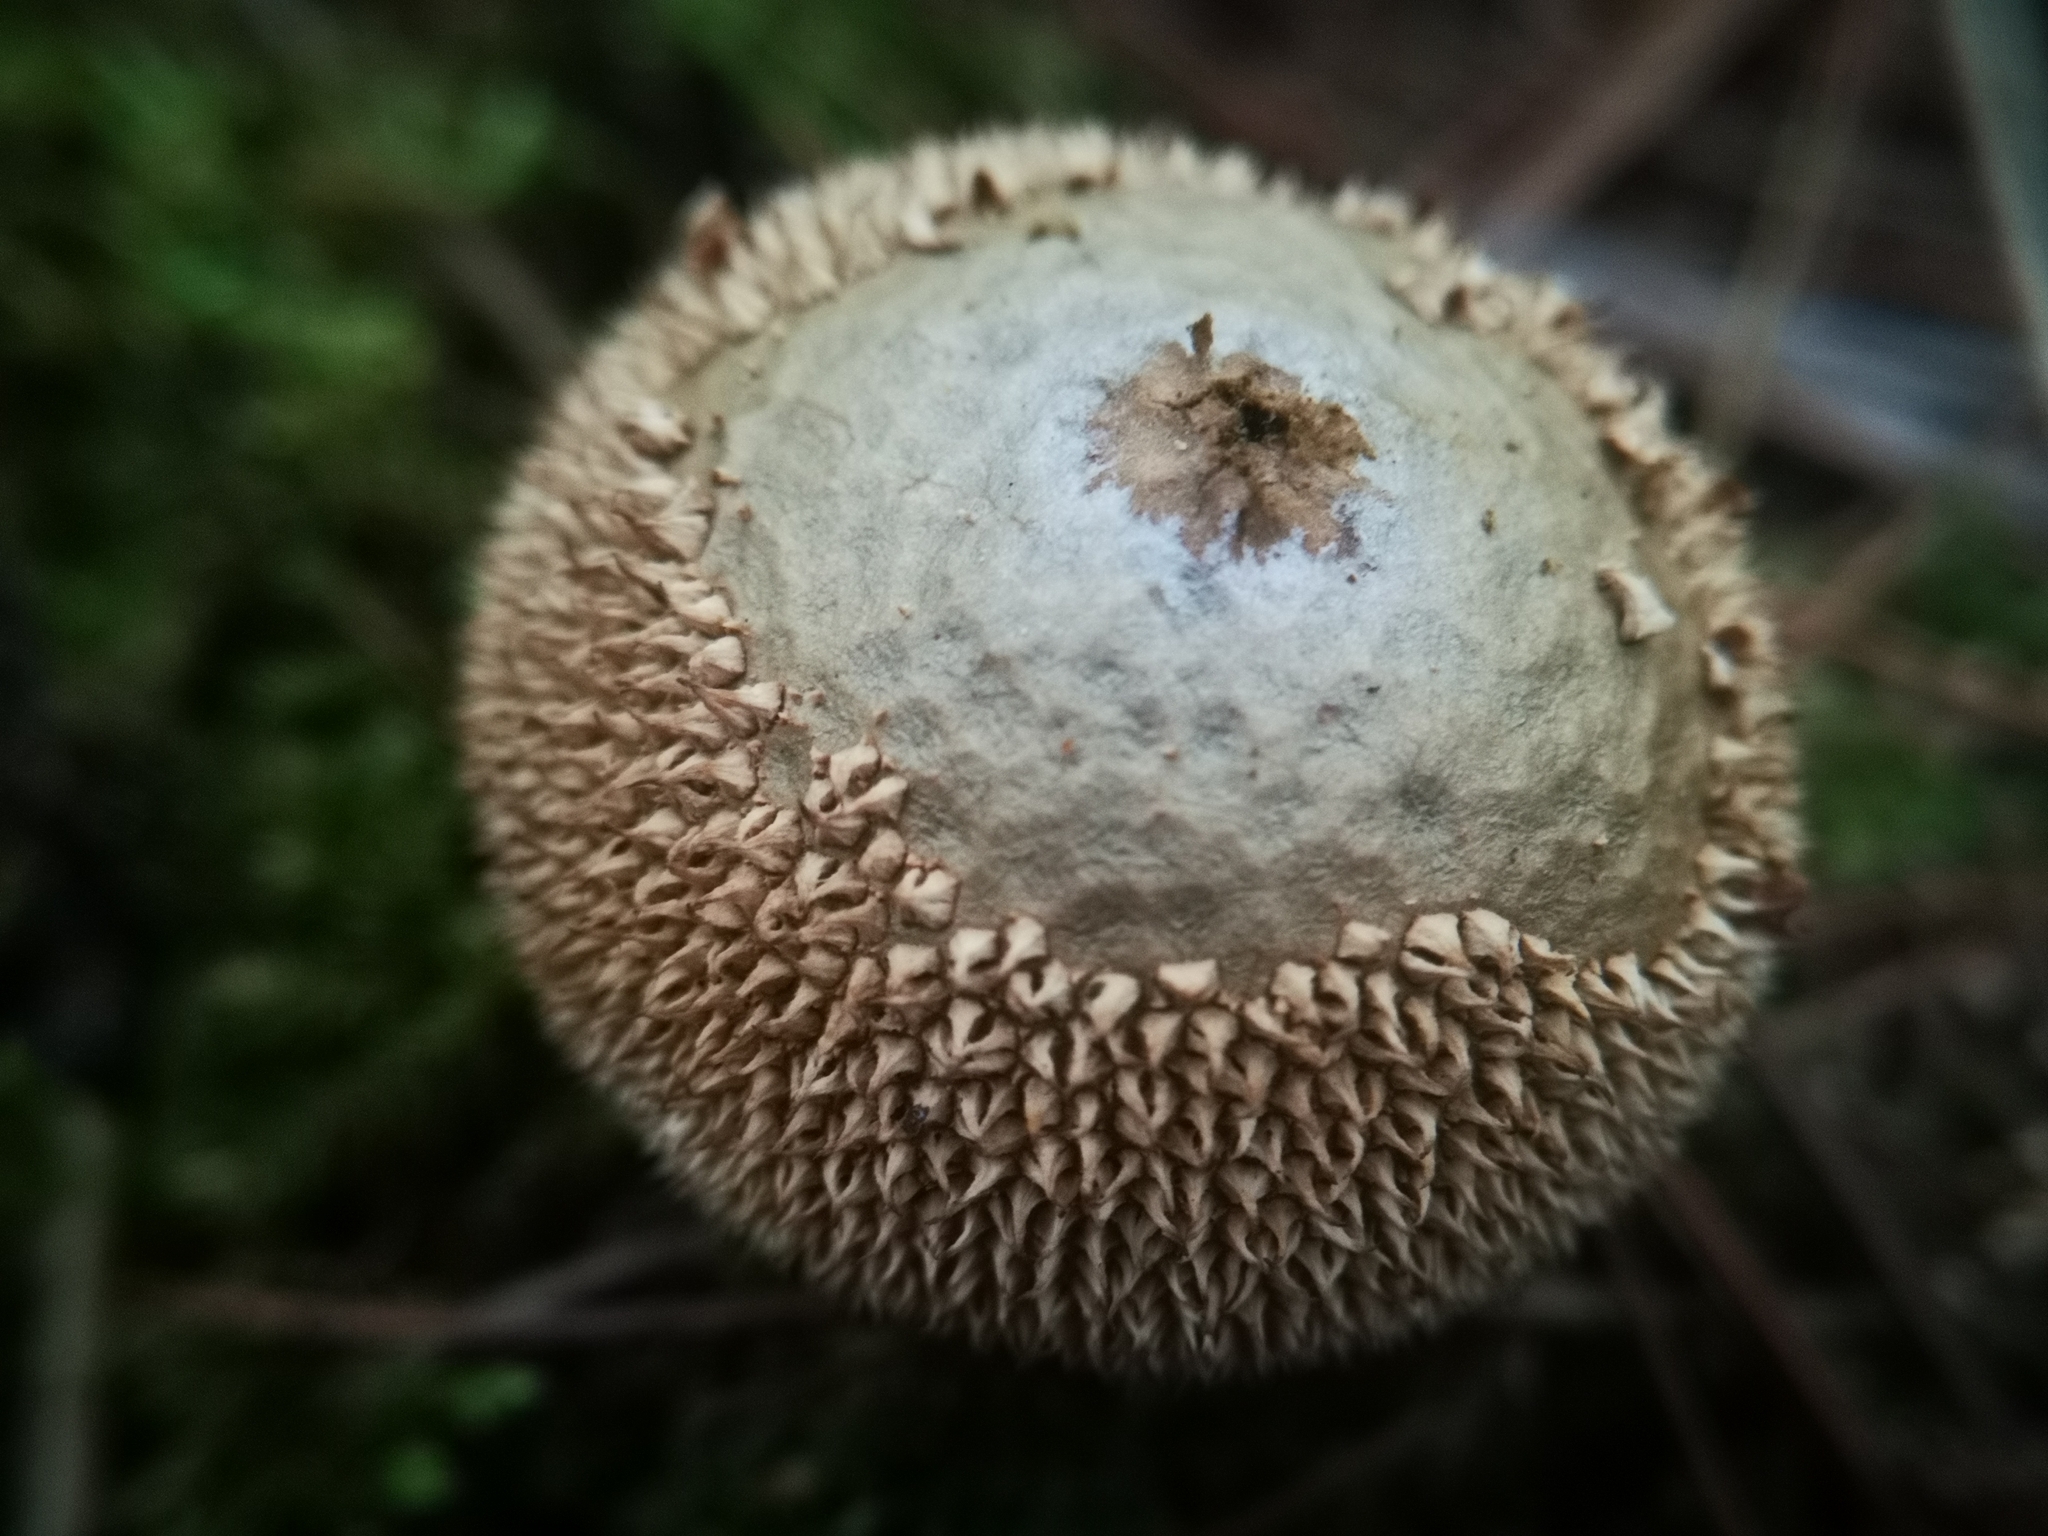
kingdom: Fungi
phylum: Basidiomycota
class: Agaricomycetes
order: Agaricales
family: Agaricaceae
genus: Lycoperdon
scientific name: Lycoperdon marginatum
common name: Peeling puffball
